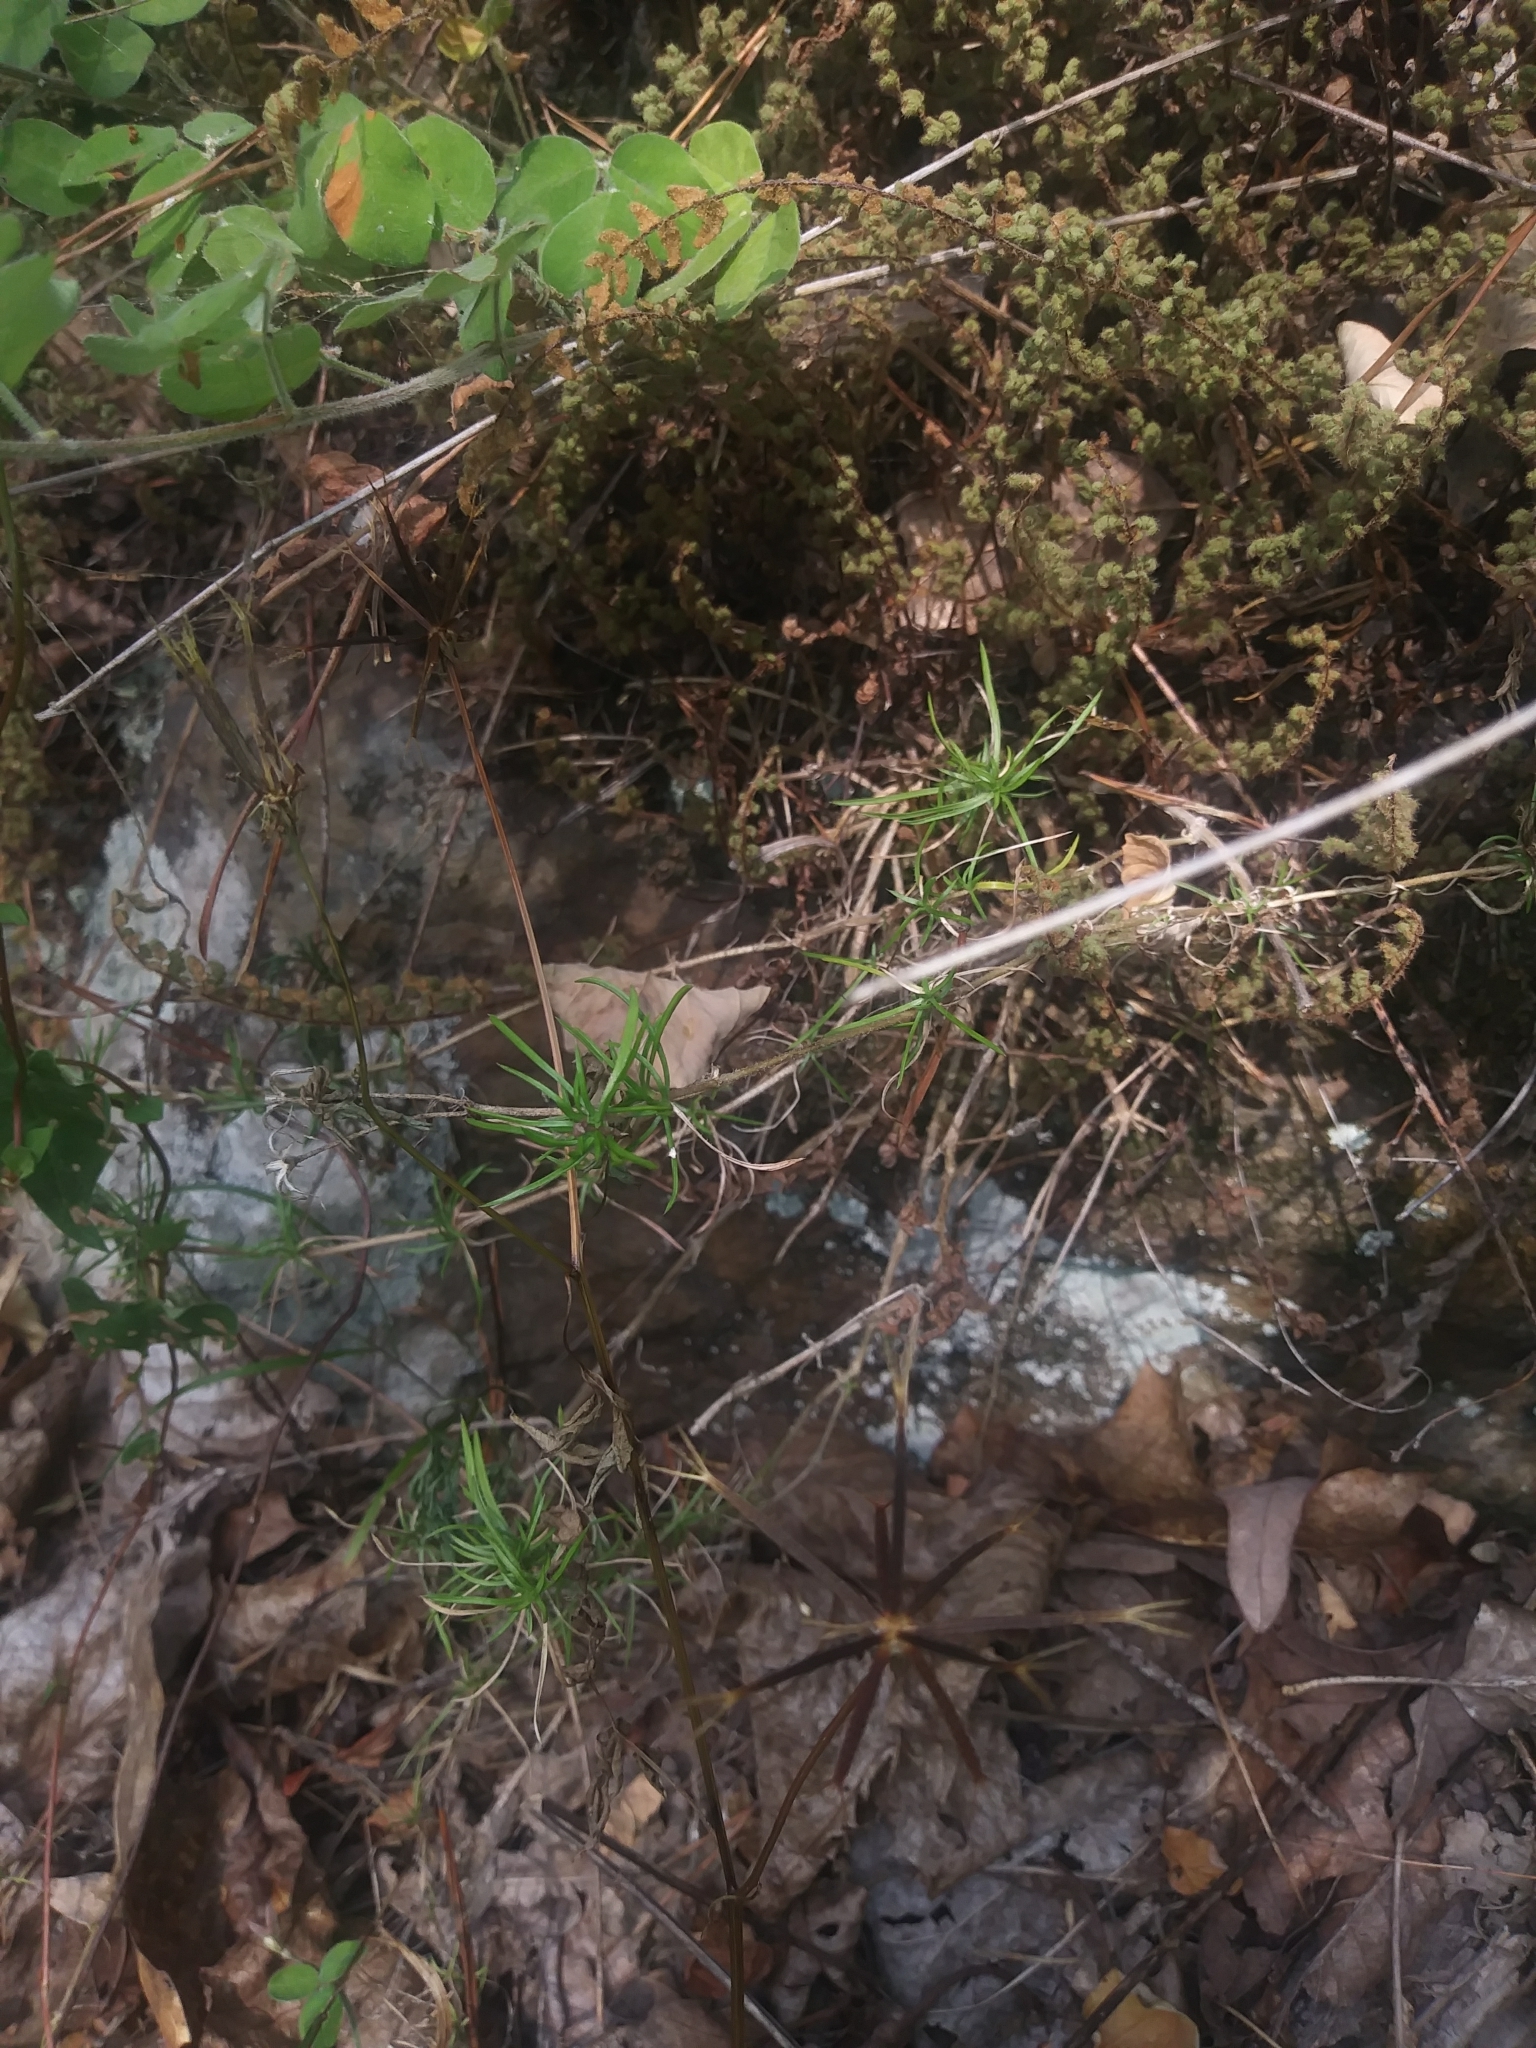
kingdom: Plantae
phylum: Tracheophyta
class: Magnoliopsida
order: Ericales
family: Polemoniaceae
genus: Phlox
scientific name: Phlox subulata
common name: Moss phlox
